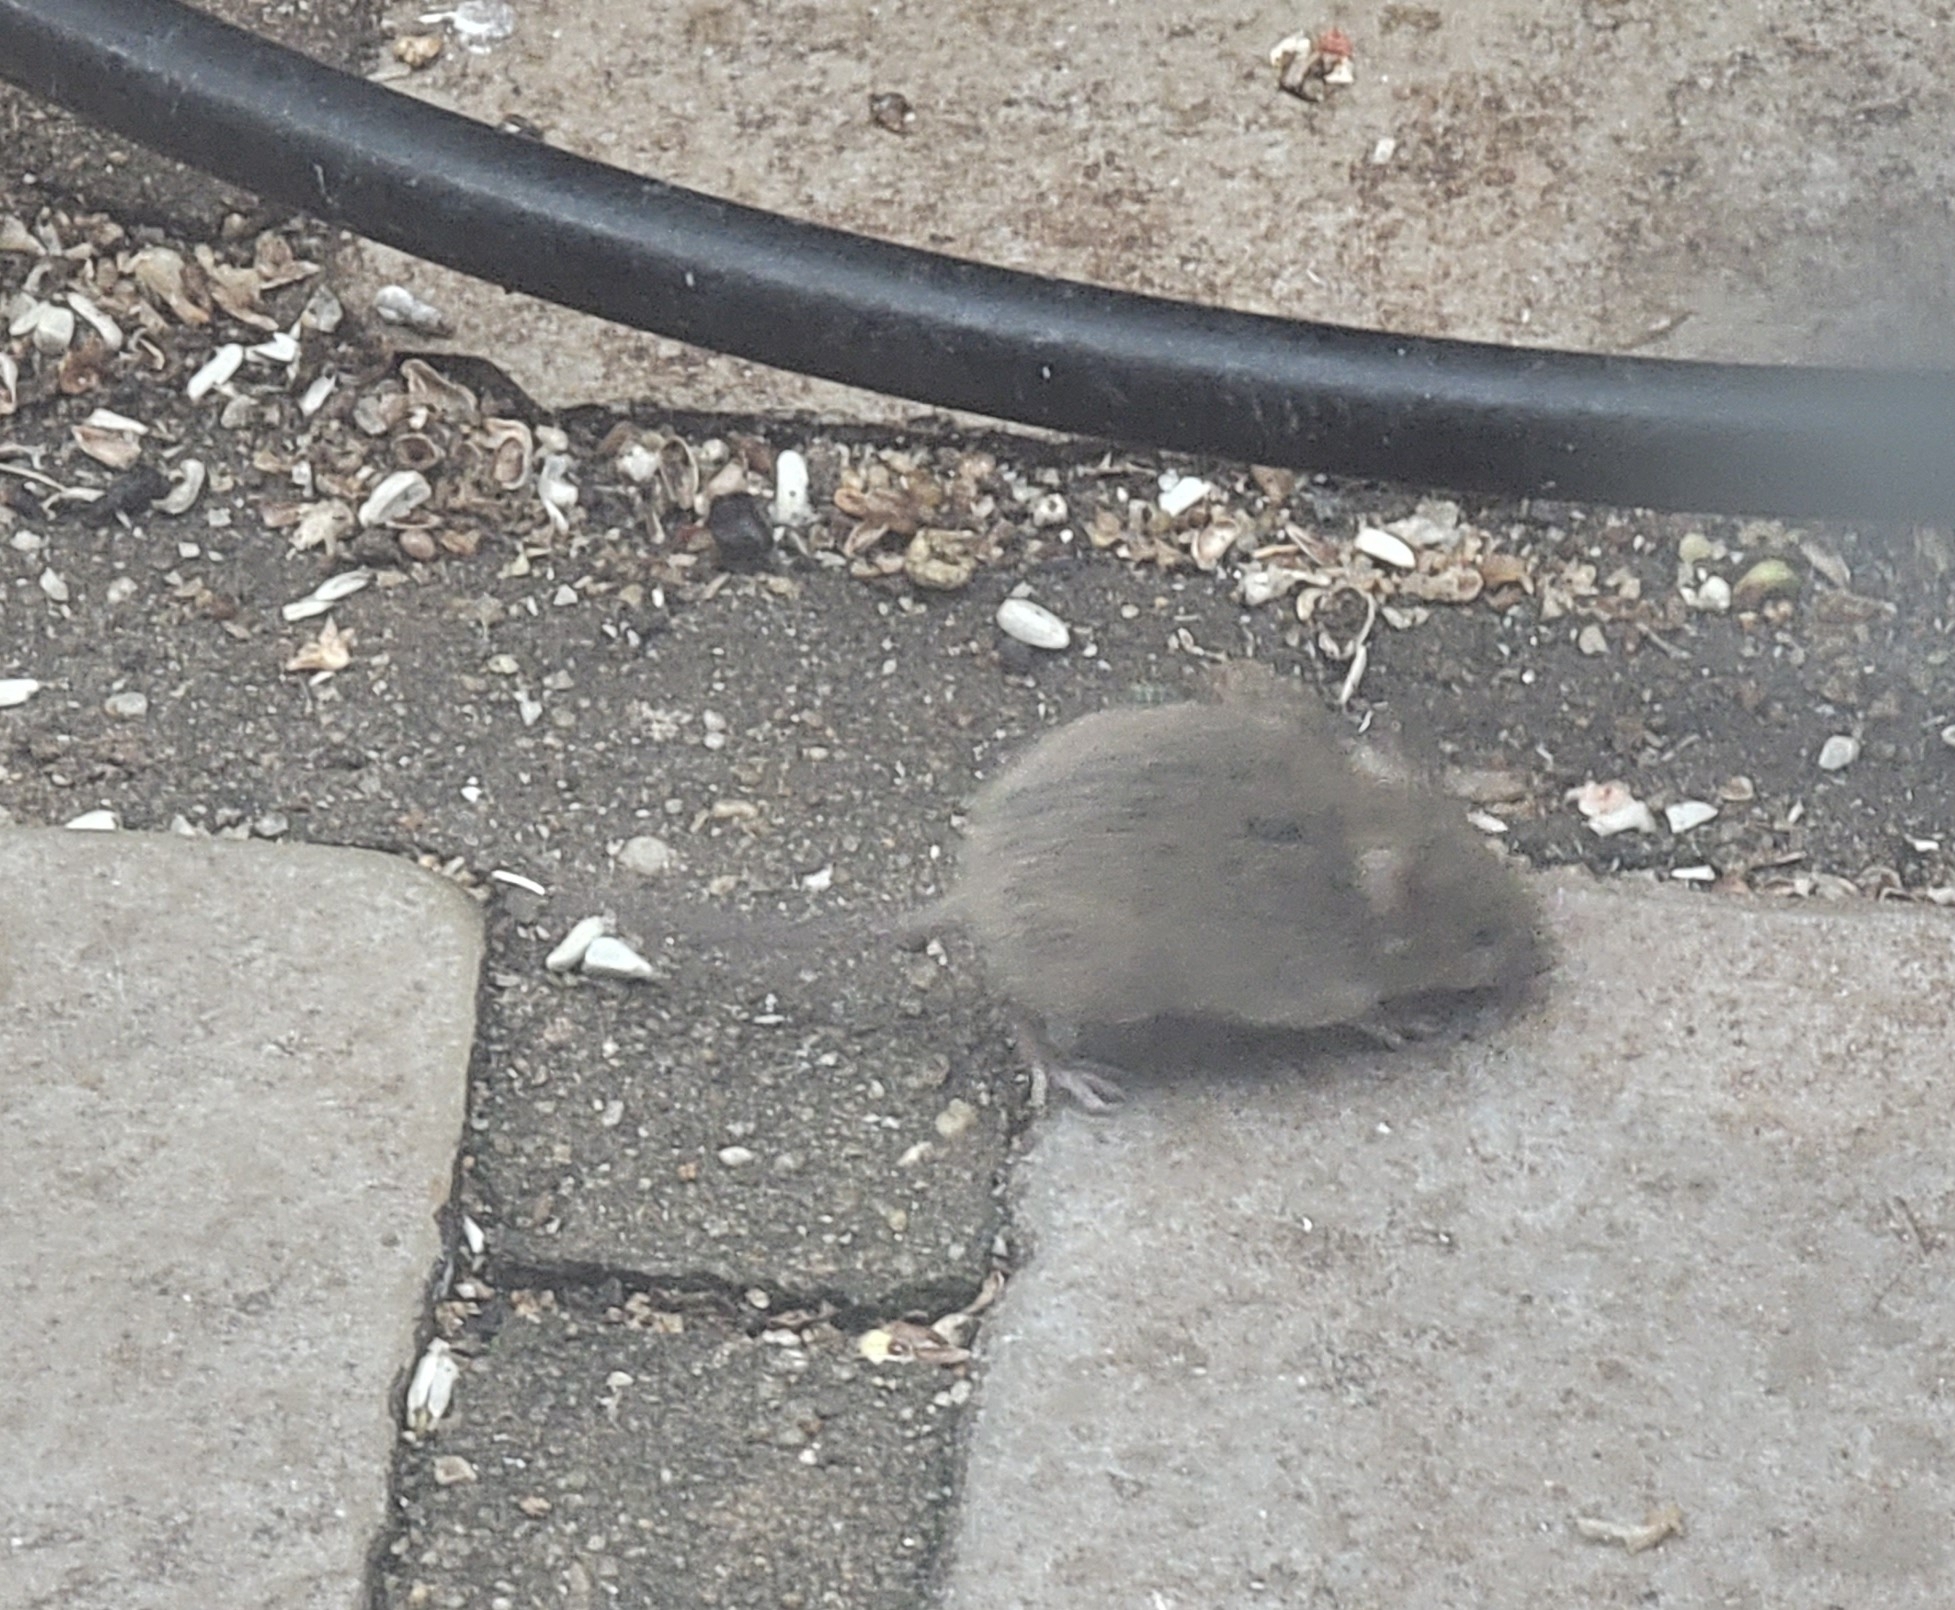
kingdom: Animalia
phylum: Chordata
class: Mammalia
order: Rodentia
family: Muridae
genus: Mus
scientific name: Mus musculus
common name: House mouse
